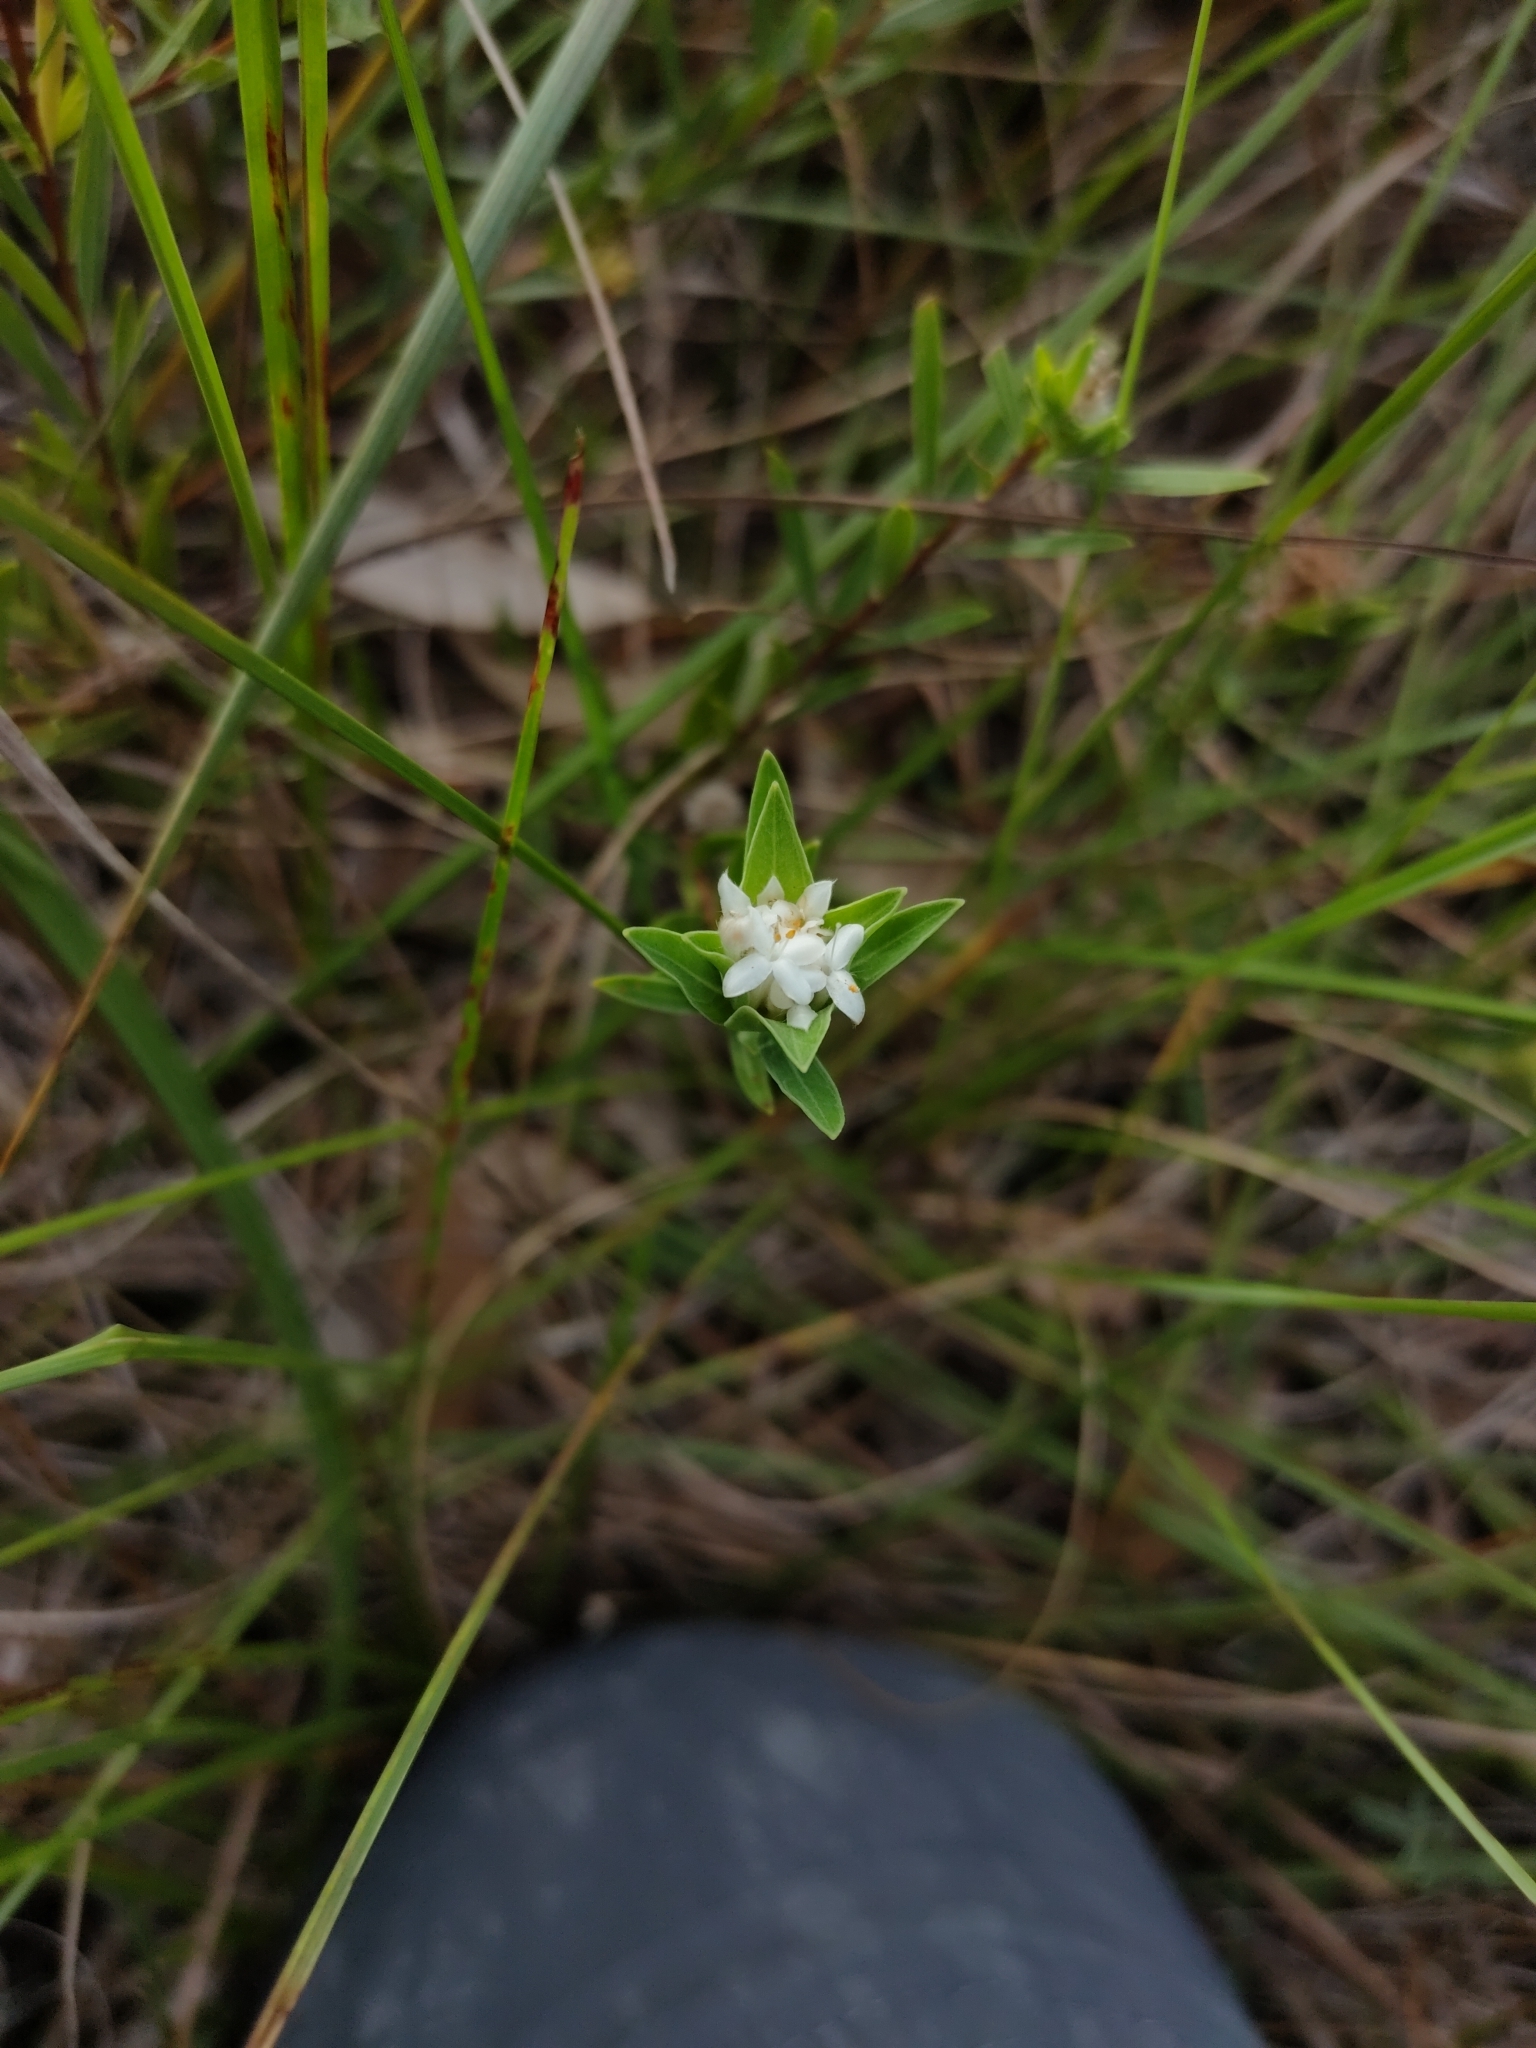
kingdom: Plantae
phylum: Tracheophyta
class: Magnoliopsida
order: Malvales
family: Thymelaeaceae
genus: Pimelea
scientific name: Pimelea linifolia
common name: Queen-of-the-bush
